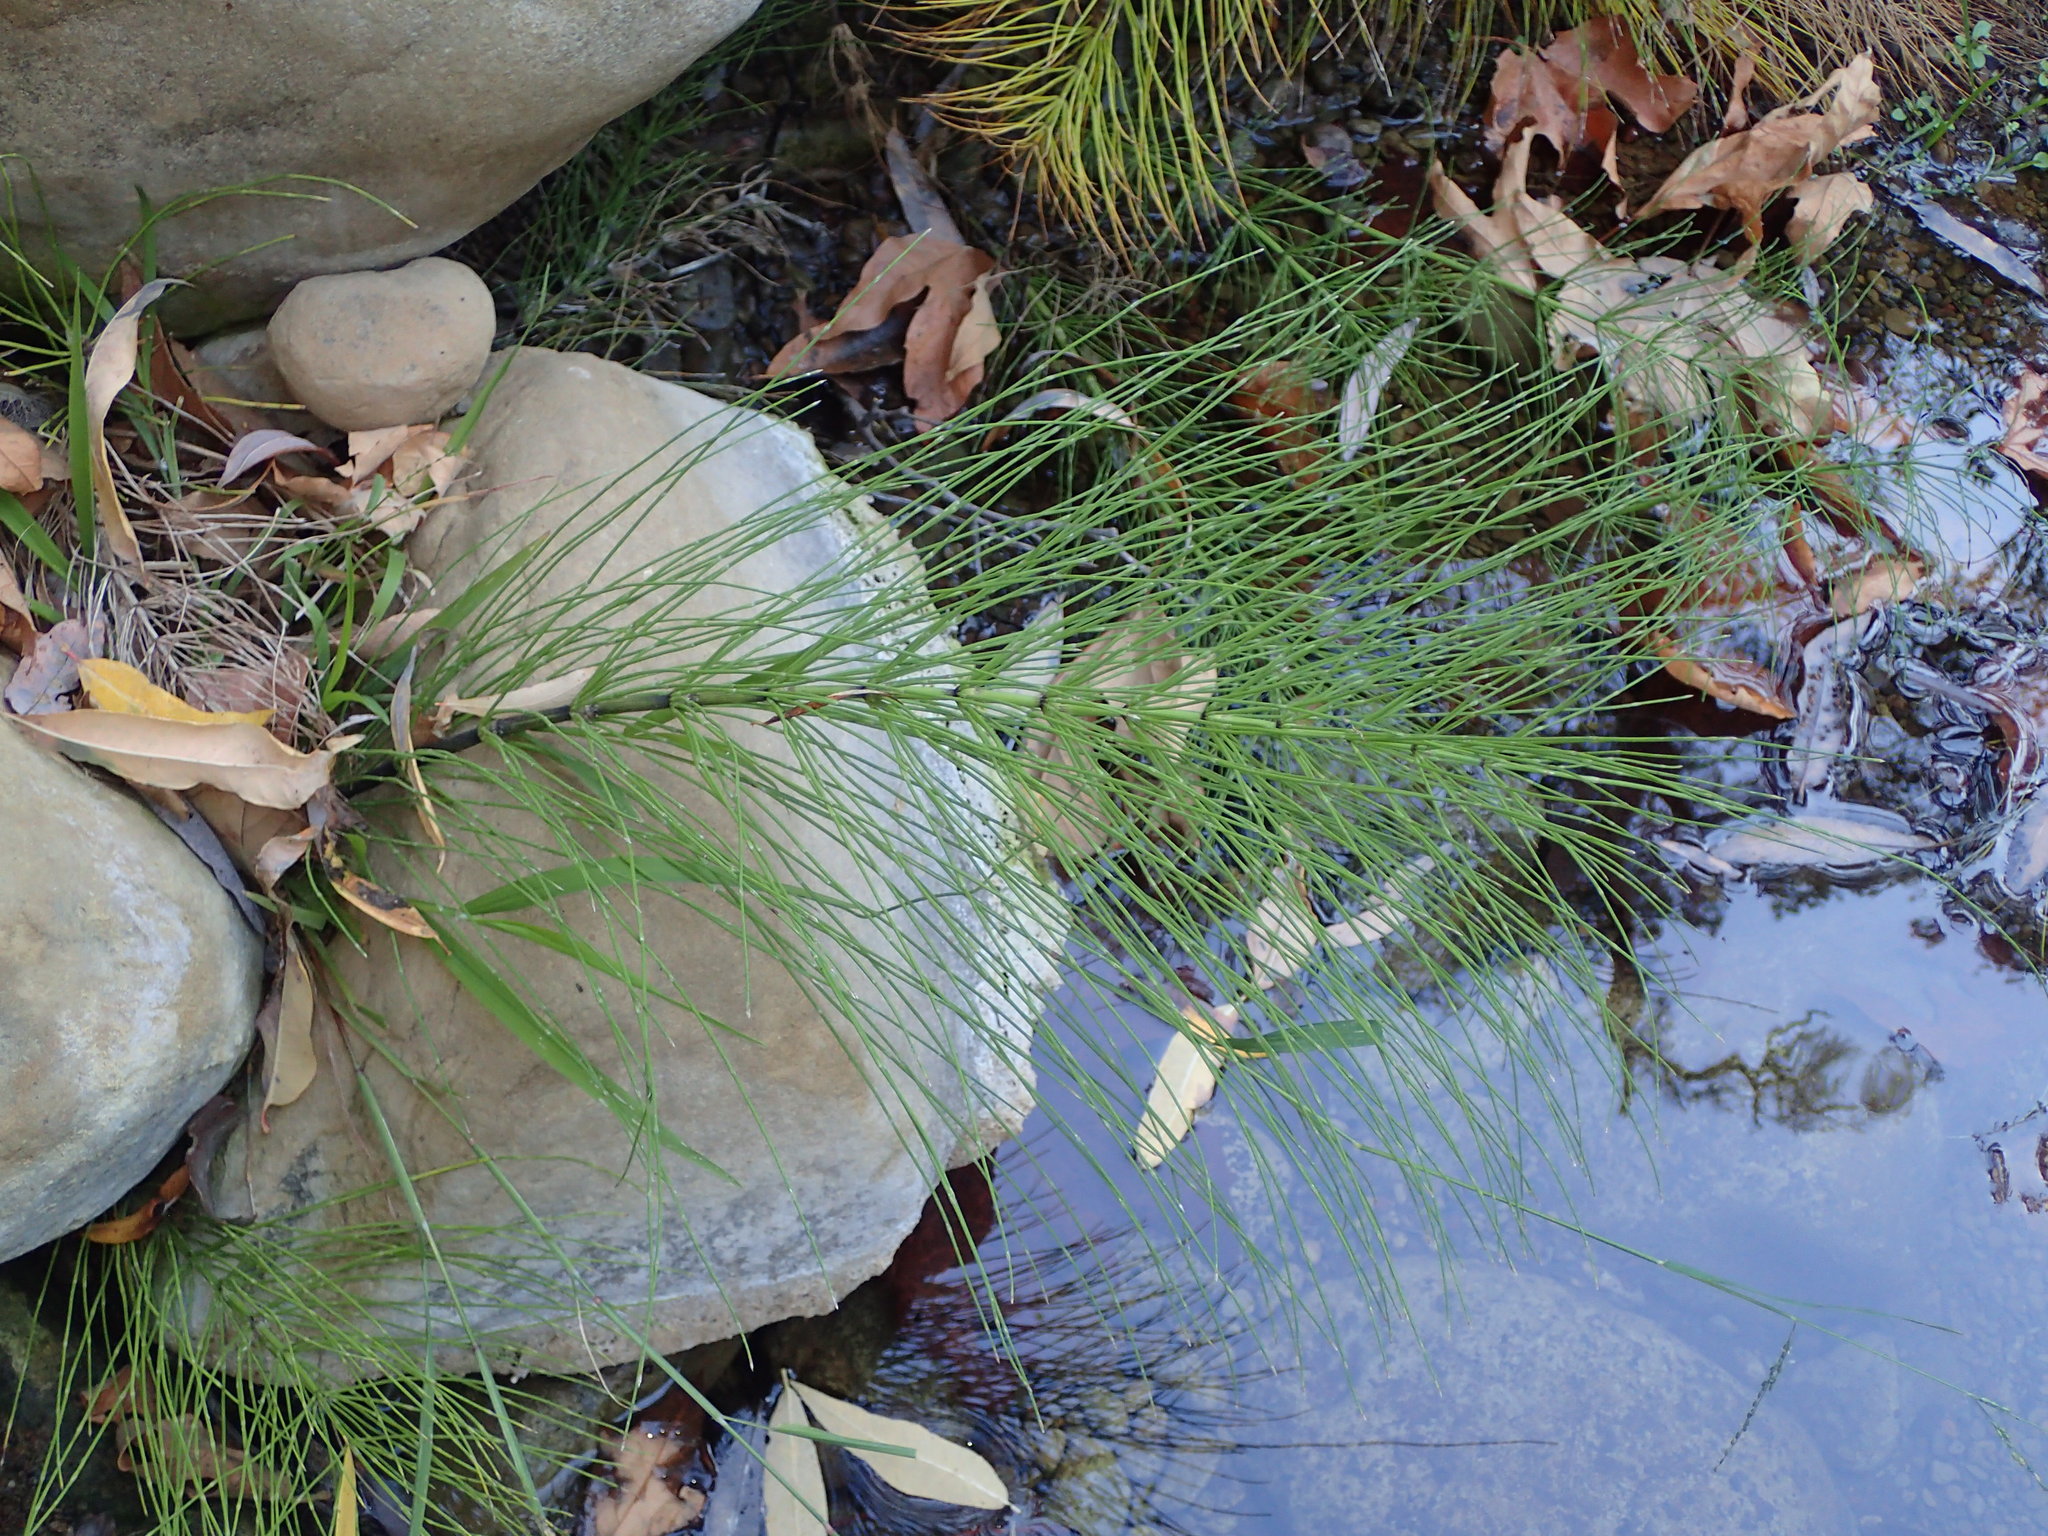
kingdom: Plantae
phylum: Tracheophyta
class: Polypodiopsida
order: Equisetales
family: Equisetaceae
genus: Equisetum
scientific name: Equisetum braunii
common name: Braun's horsetail
